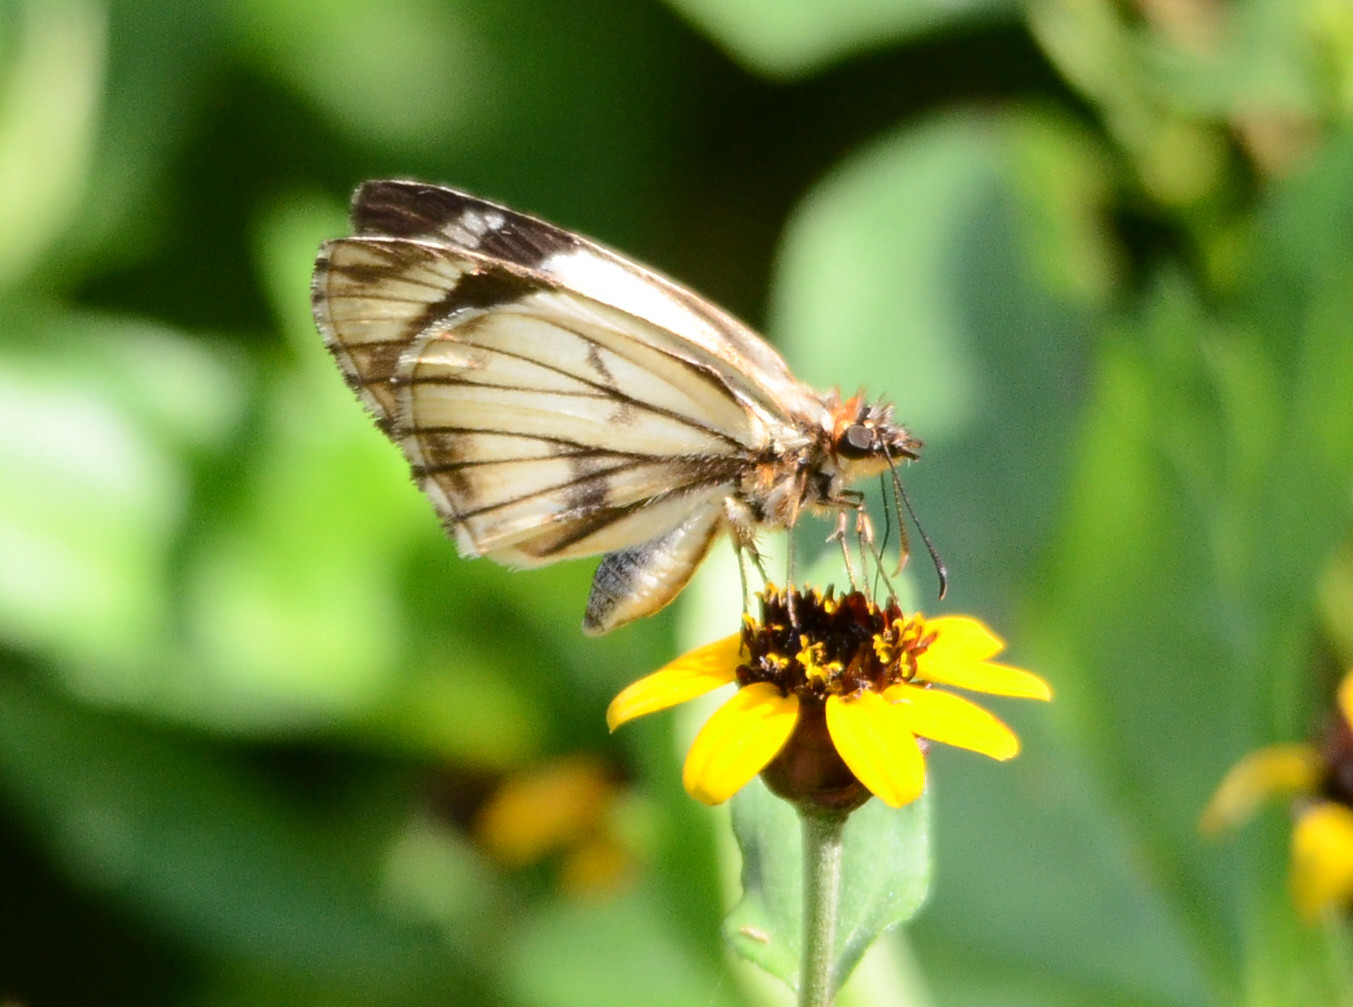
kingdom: Animalia
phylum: Arthropoda
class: Insecta
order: Lepidoptera
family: Hesperiidae
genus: Heliopetes
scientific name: Heliopetes alana
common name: Alana white-skipper
